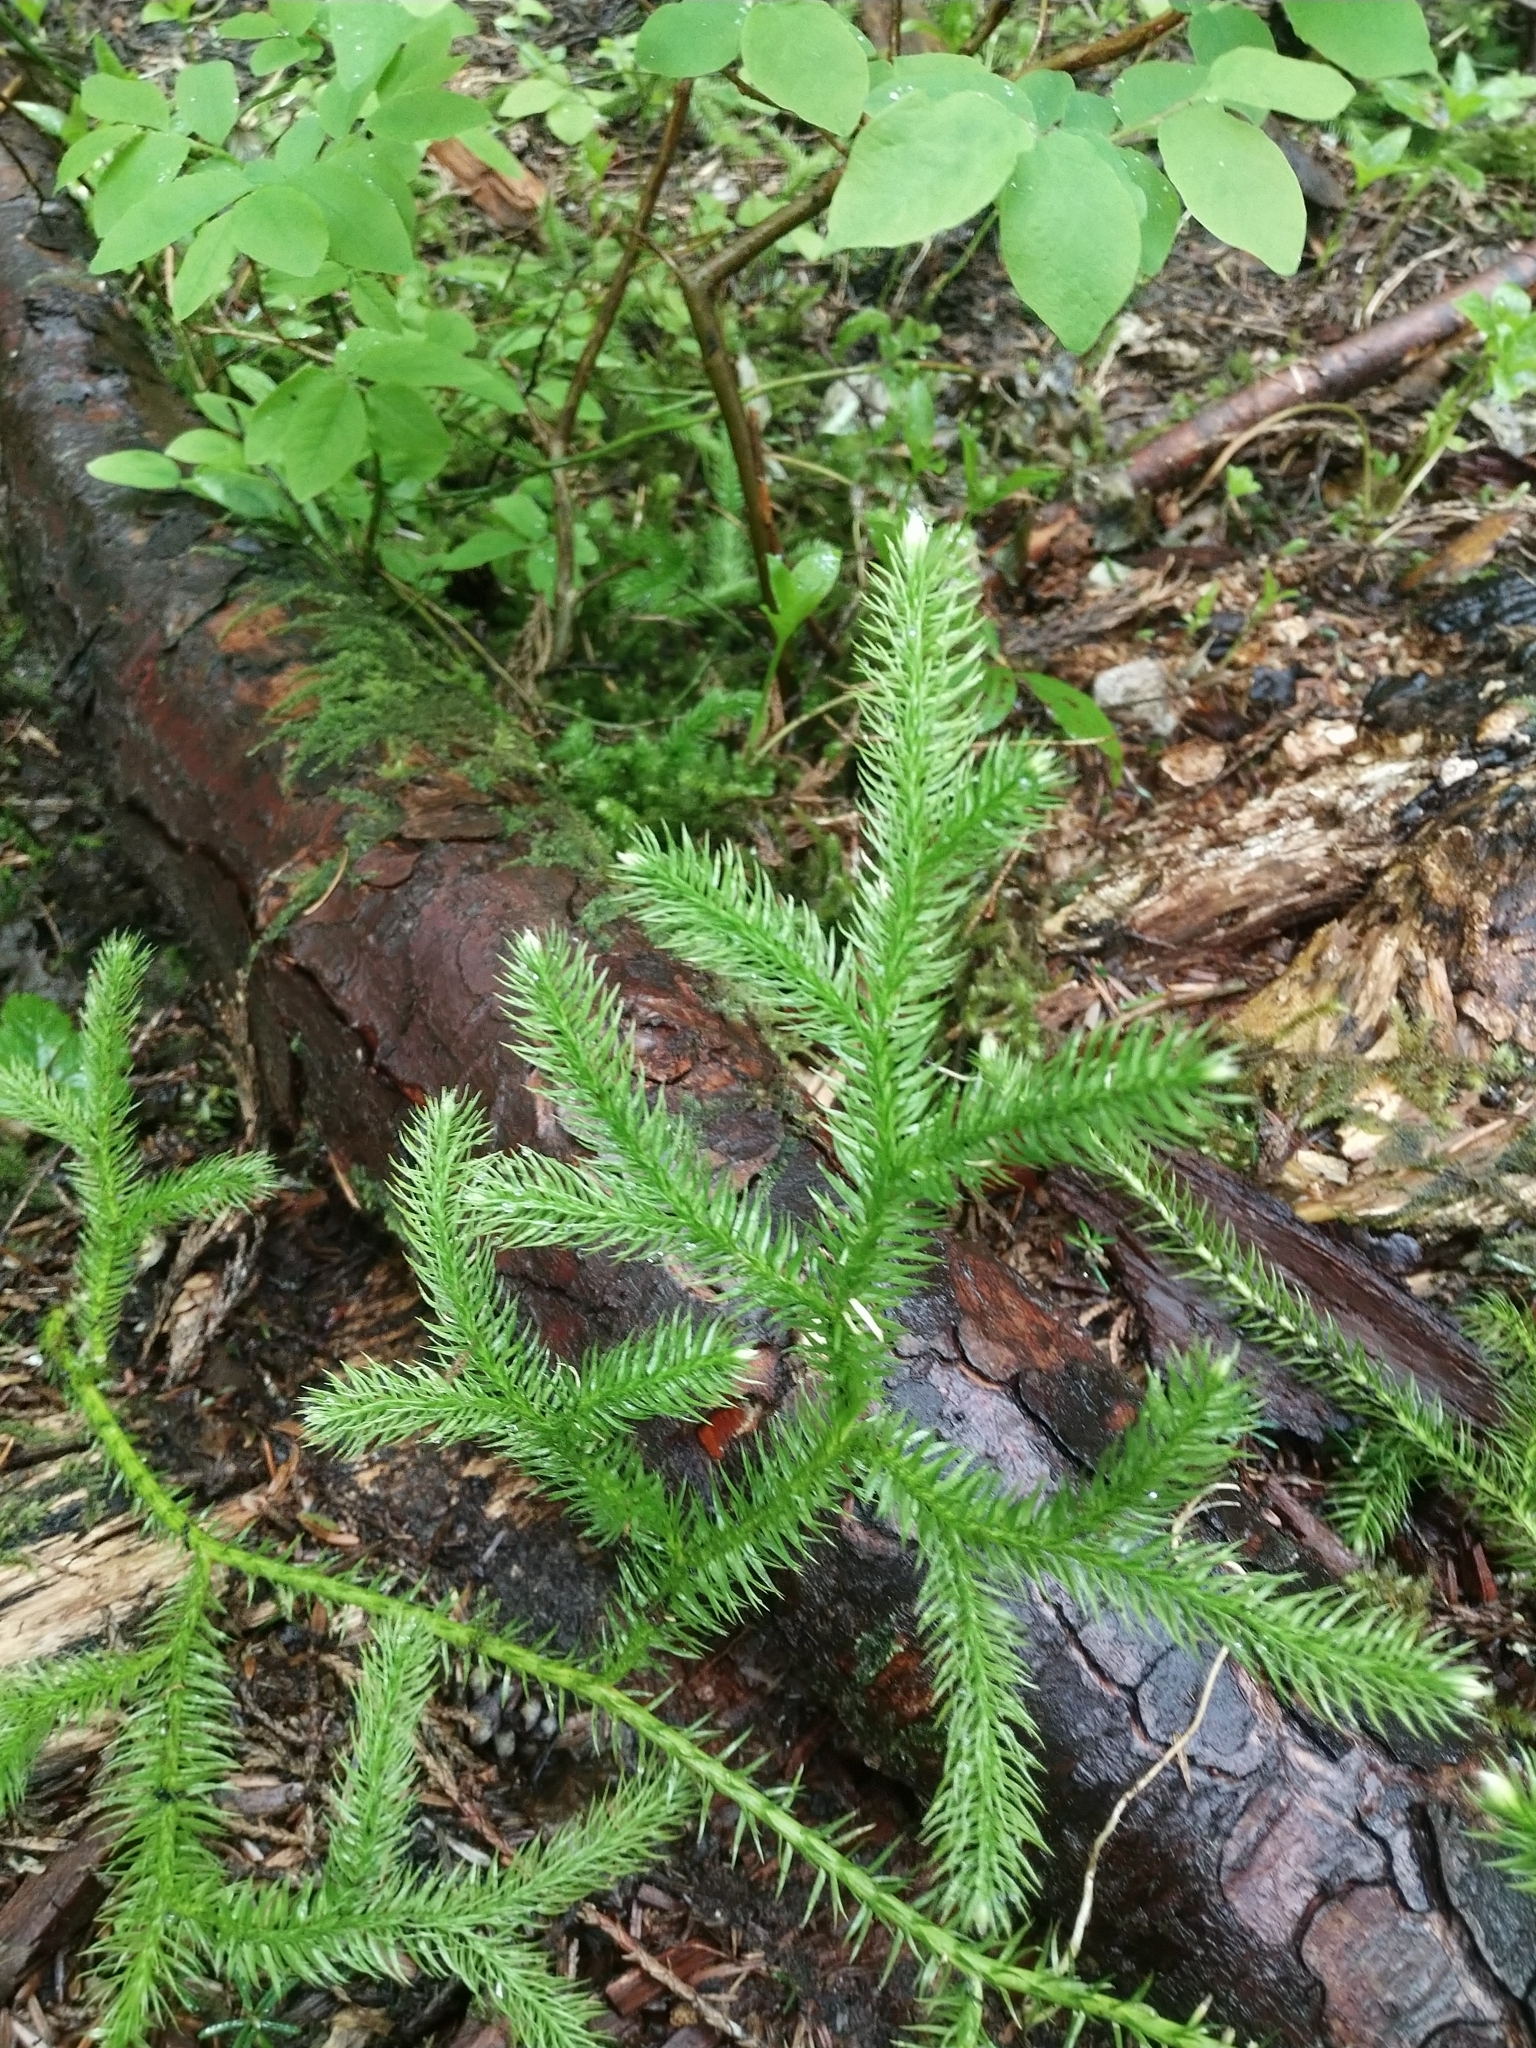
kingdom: Plantae
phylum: Tracheophyta
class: Lycopodiopsida
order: Lycopodiales
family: Lycopodiaceae
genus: Lycopodium
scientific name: Lycopodium clavatum
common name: Stag's-horn clubmoss
